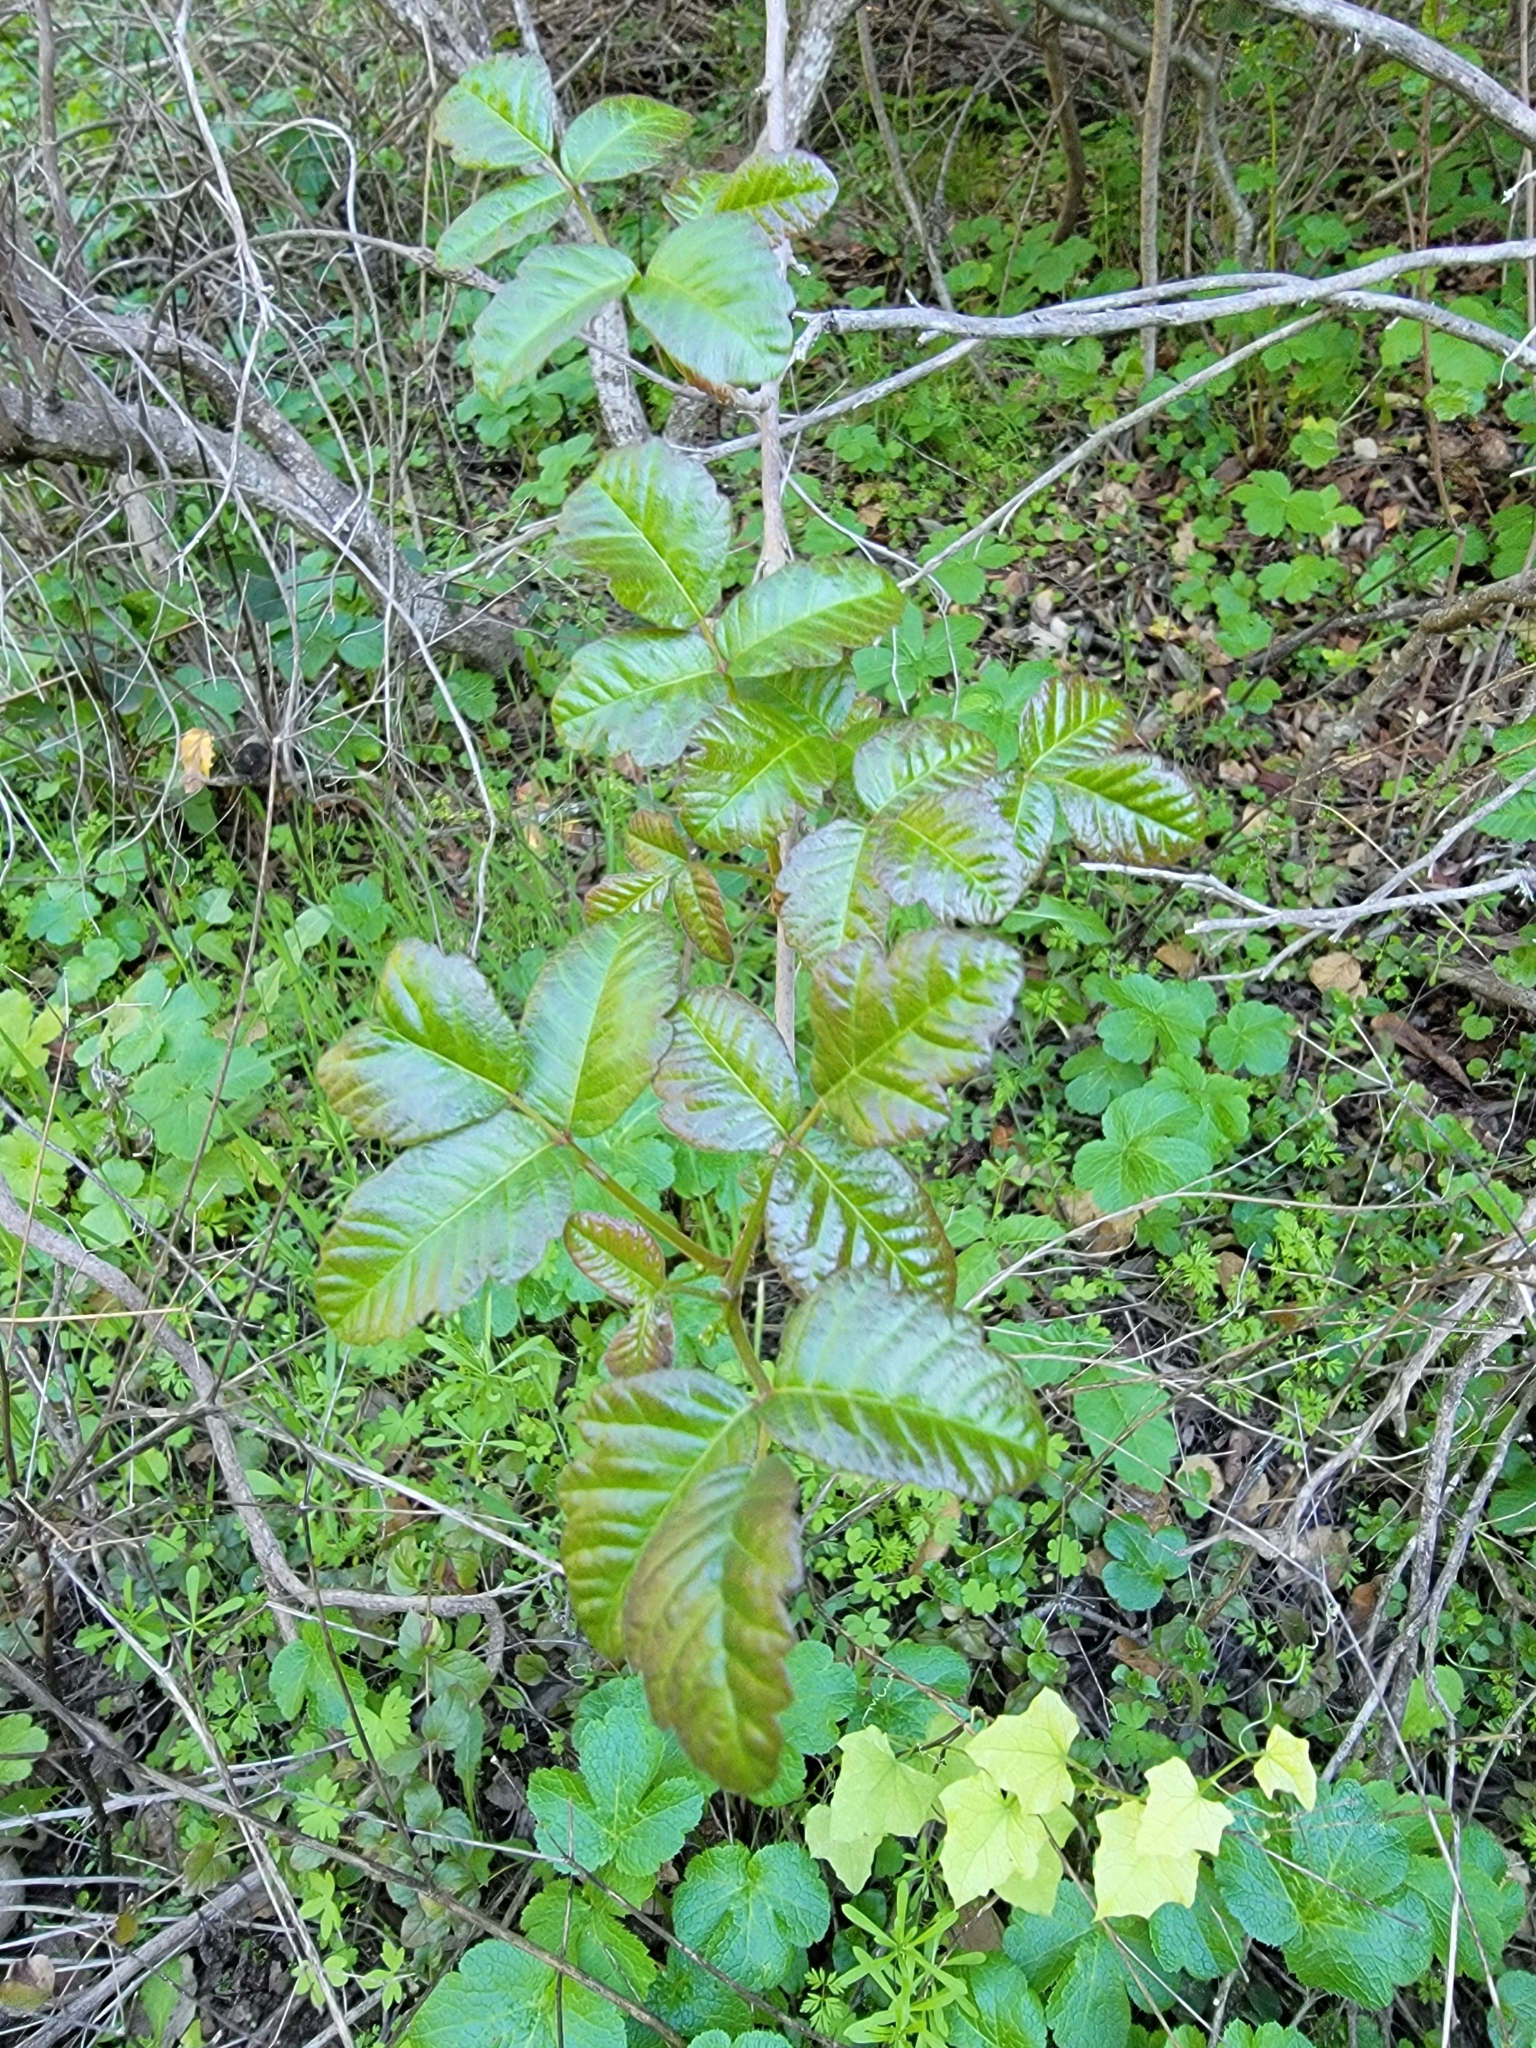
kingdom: Plantae
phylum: Tracheophyta
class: Magnoliopsida
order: Sapindales
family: Anacardiaceae
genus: Toxicodendron
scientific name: Toxicodendron diversilobum
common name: Pacific poison-oak
